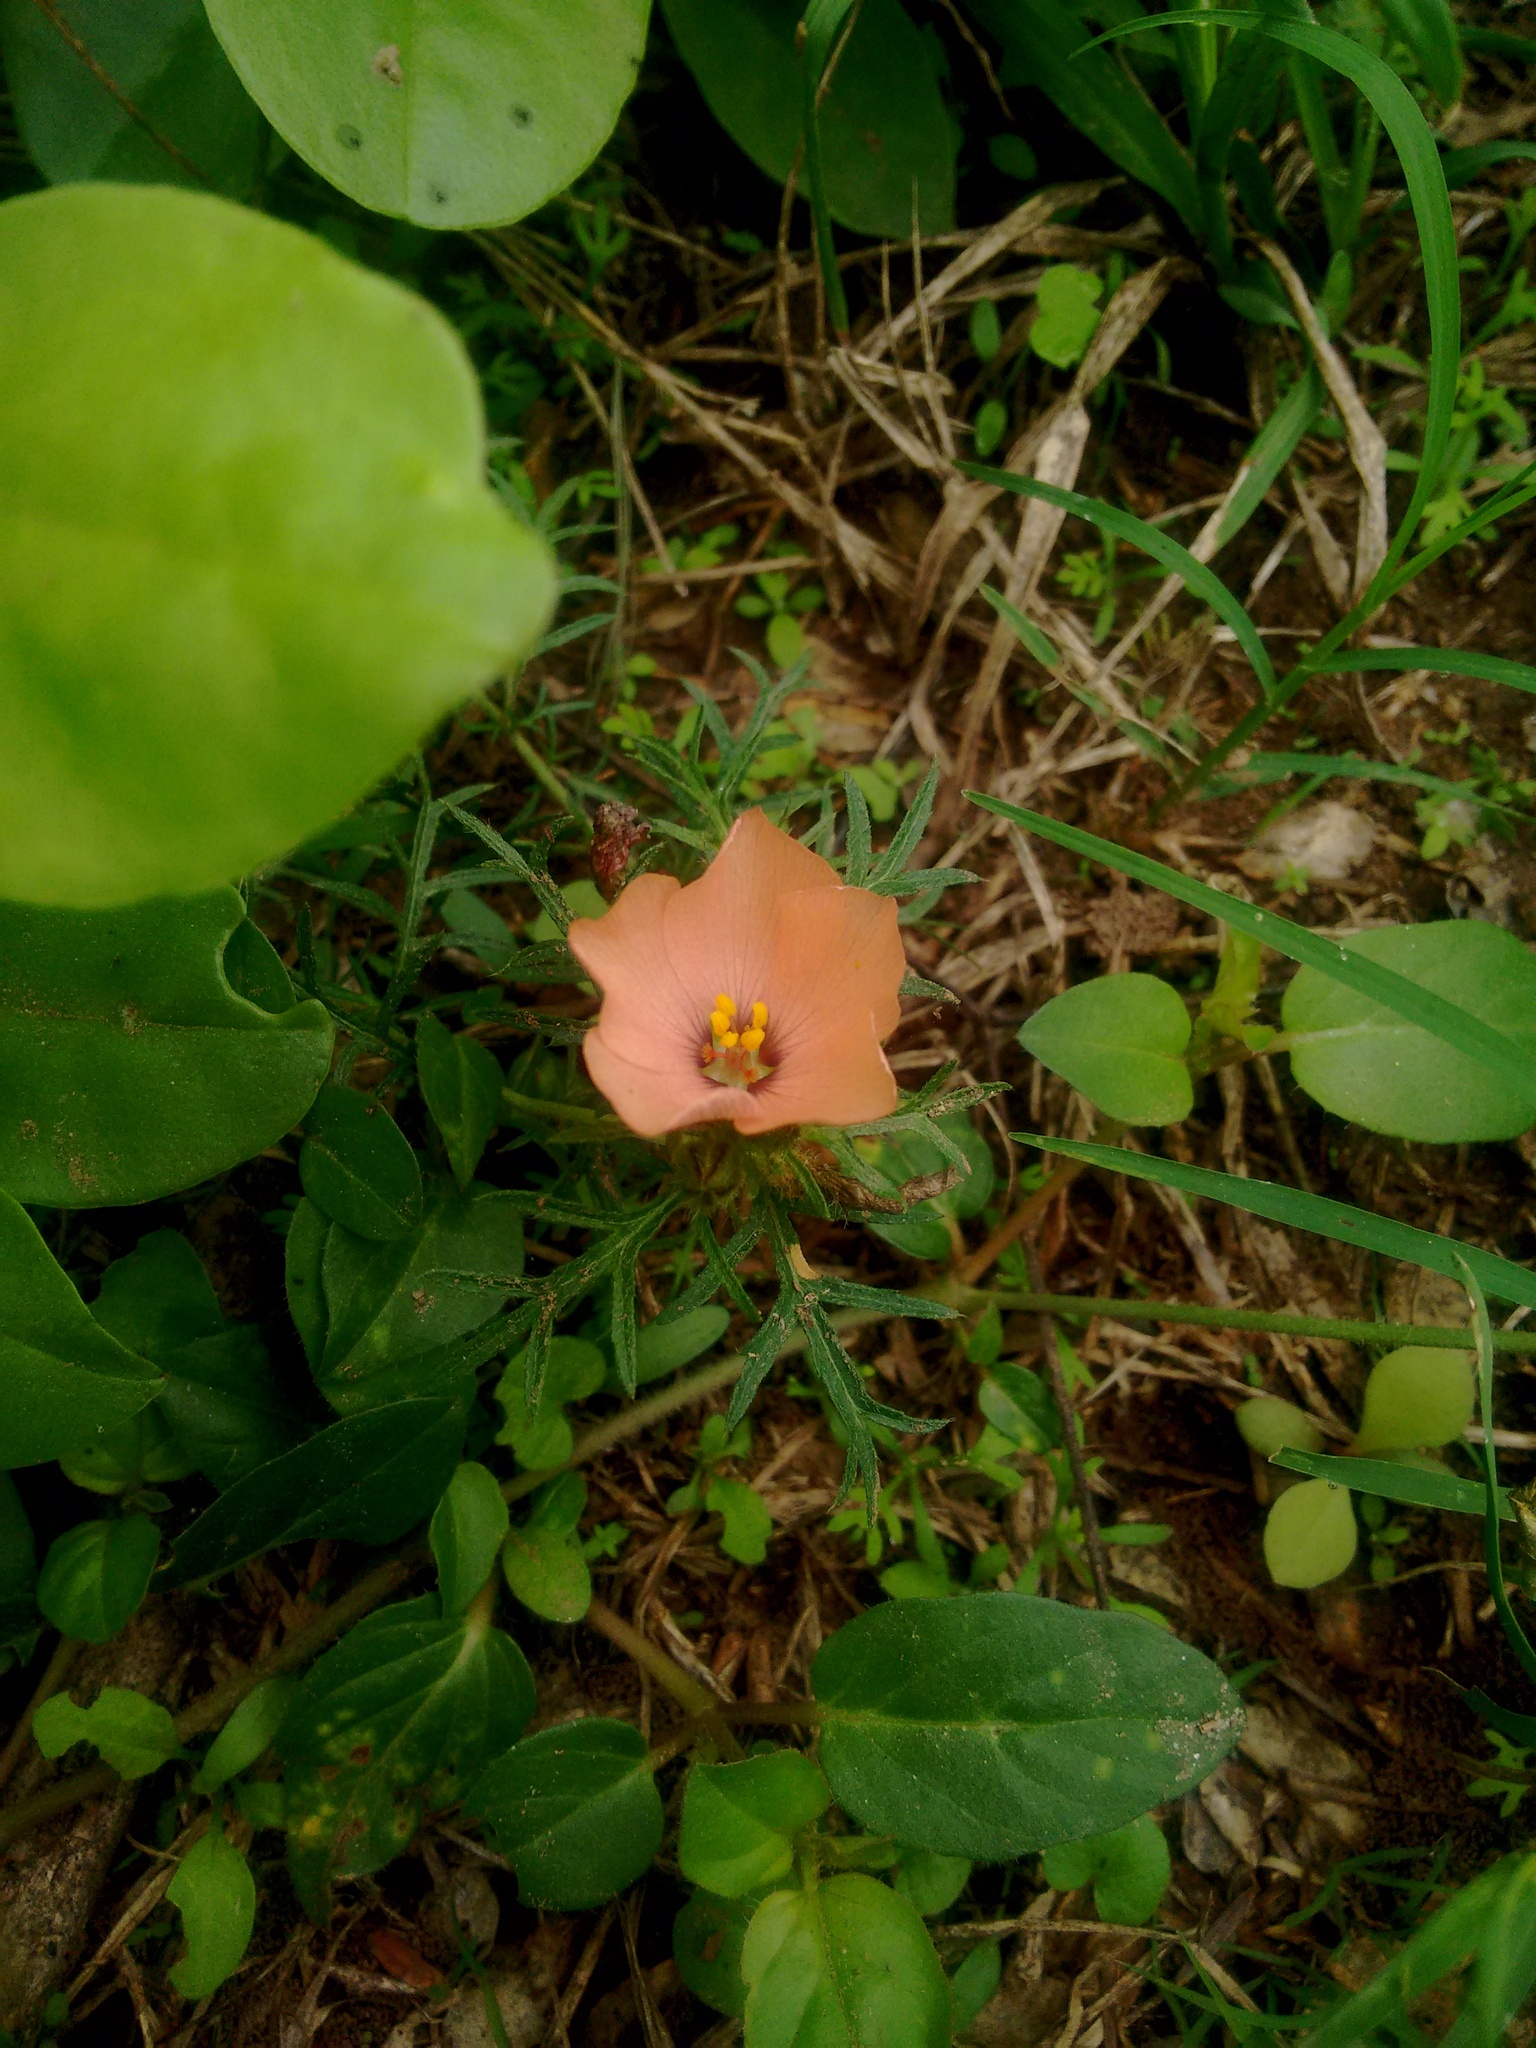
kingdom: Plantae
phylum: Tracheophyta
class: Magnoliopsida
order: Malpighiales
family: Turneraceae
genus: Turnera
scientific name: Turnera sidoides
